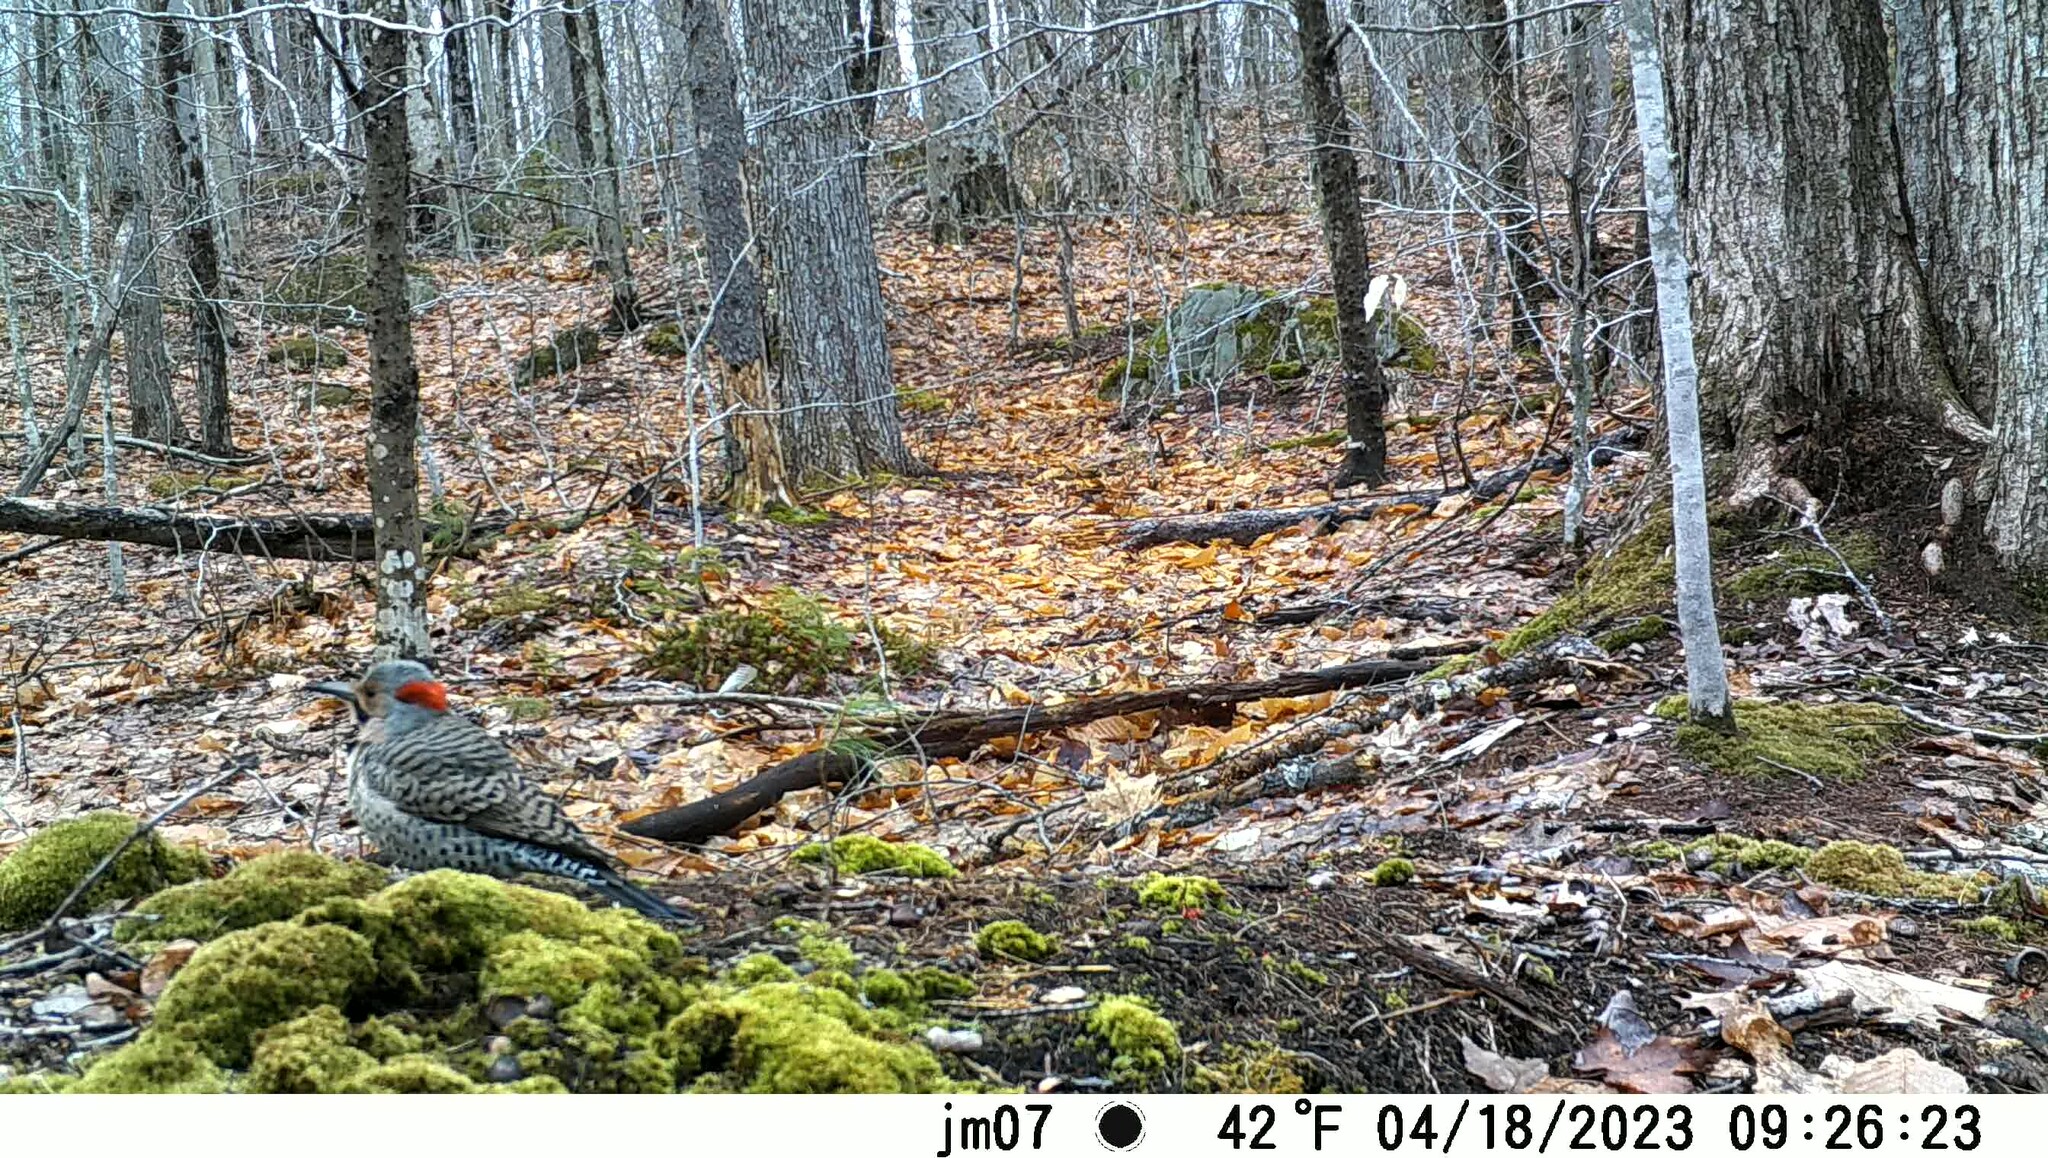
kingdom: Animalia
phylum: Chordata
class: Aves
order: Piciformes
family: Picidae
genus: Colaptes
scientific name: Colaptes auratus
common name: Northern flicker
